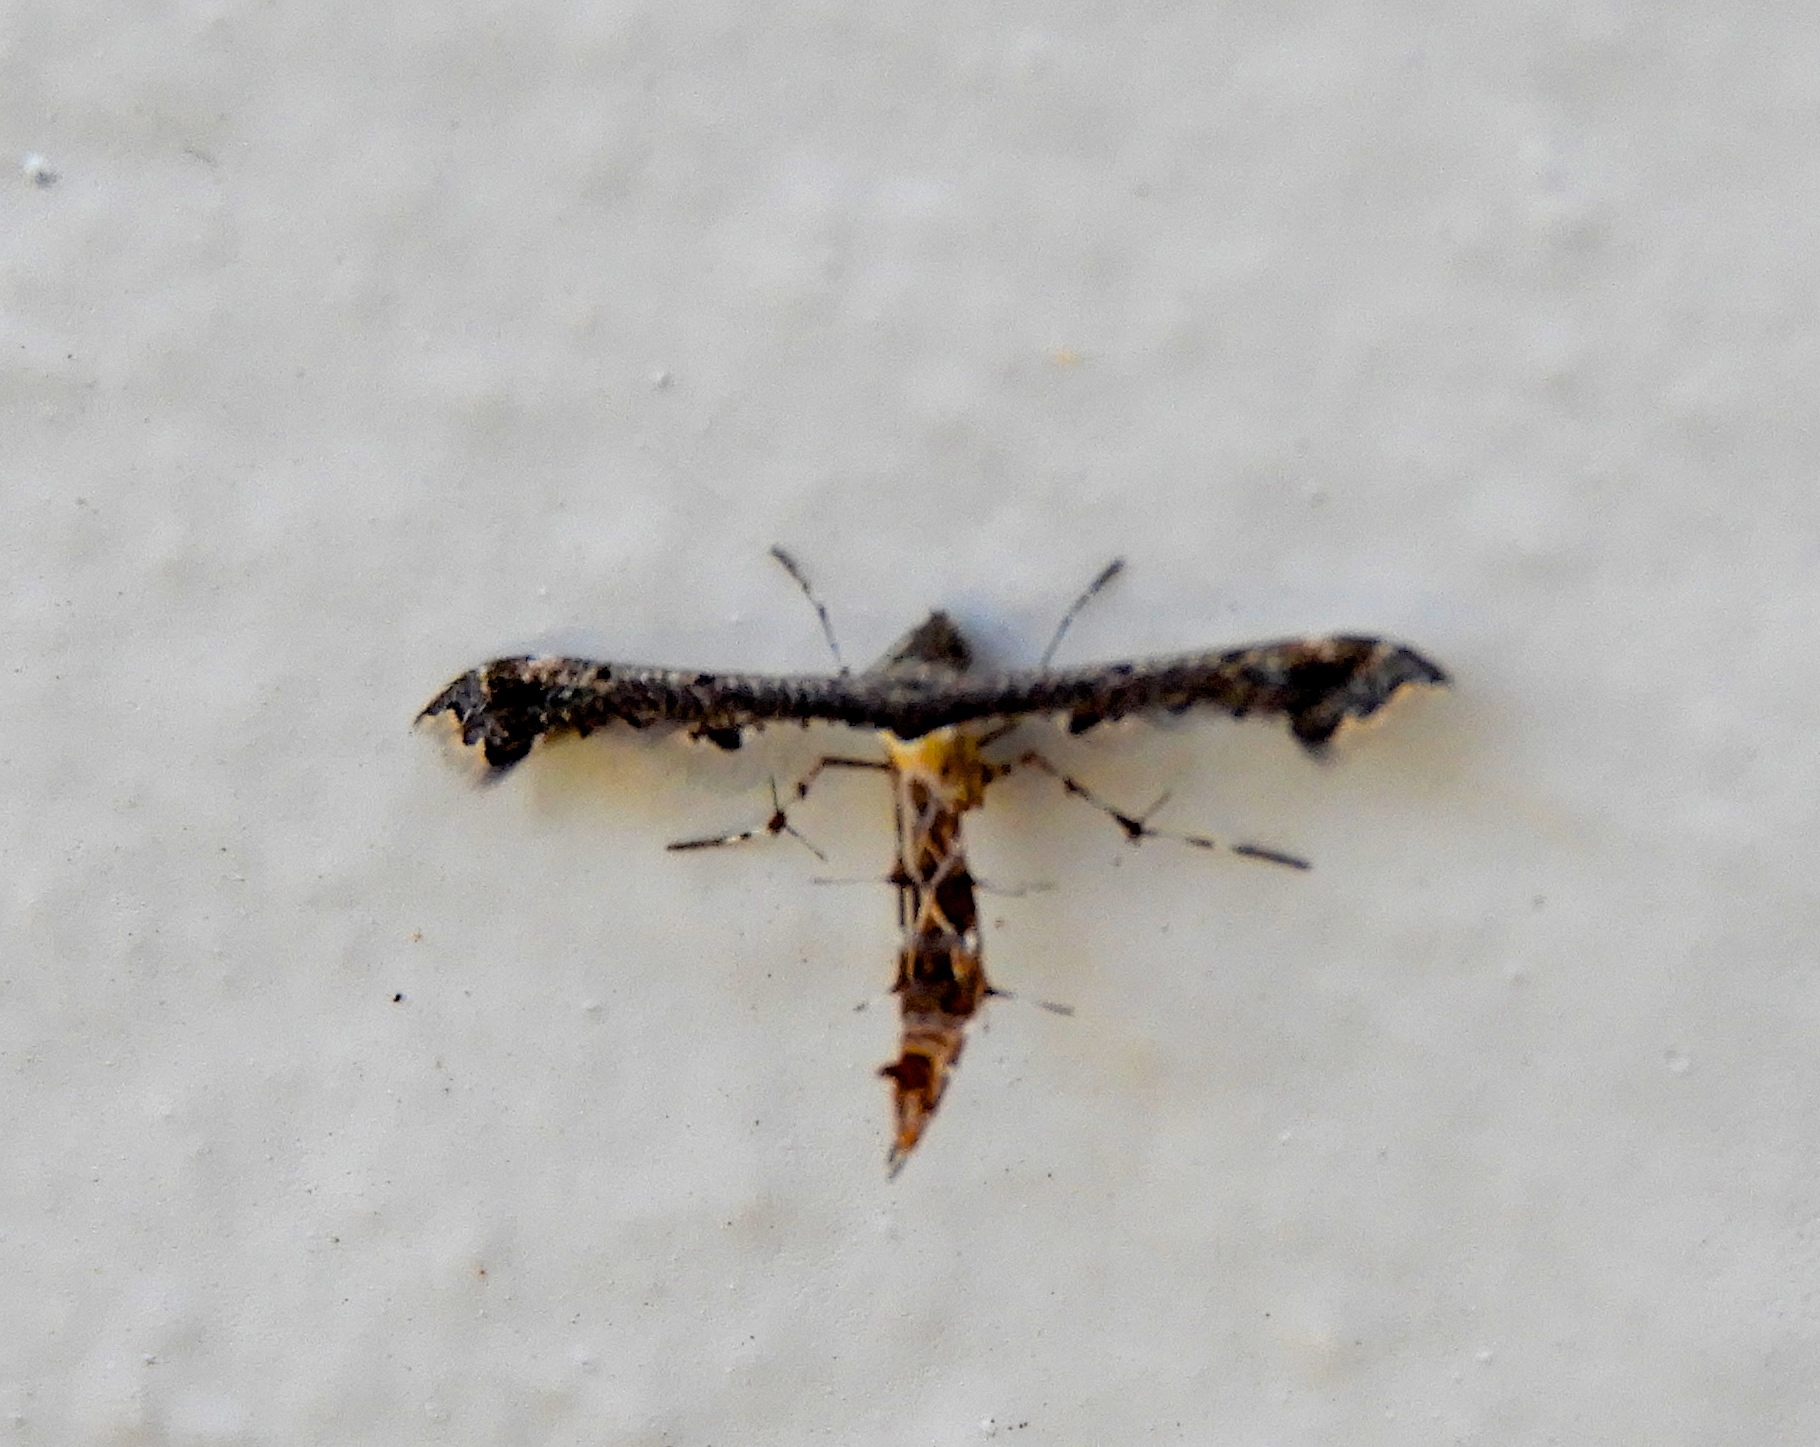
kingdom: Animalia
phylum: Arthropoda
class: Insecta
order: Lepidoptera
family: Pterophoridae
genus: Michaelophorus
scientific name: Michaelophorus indentatus
